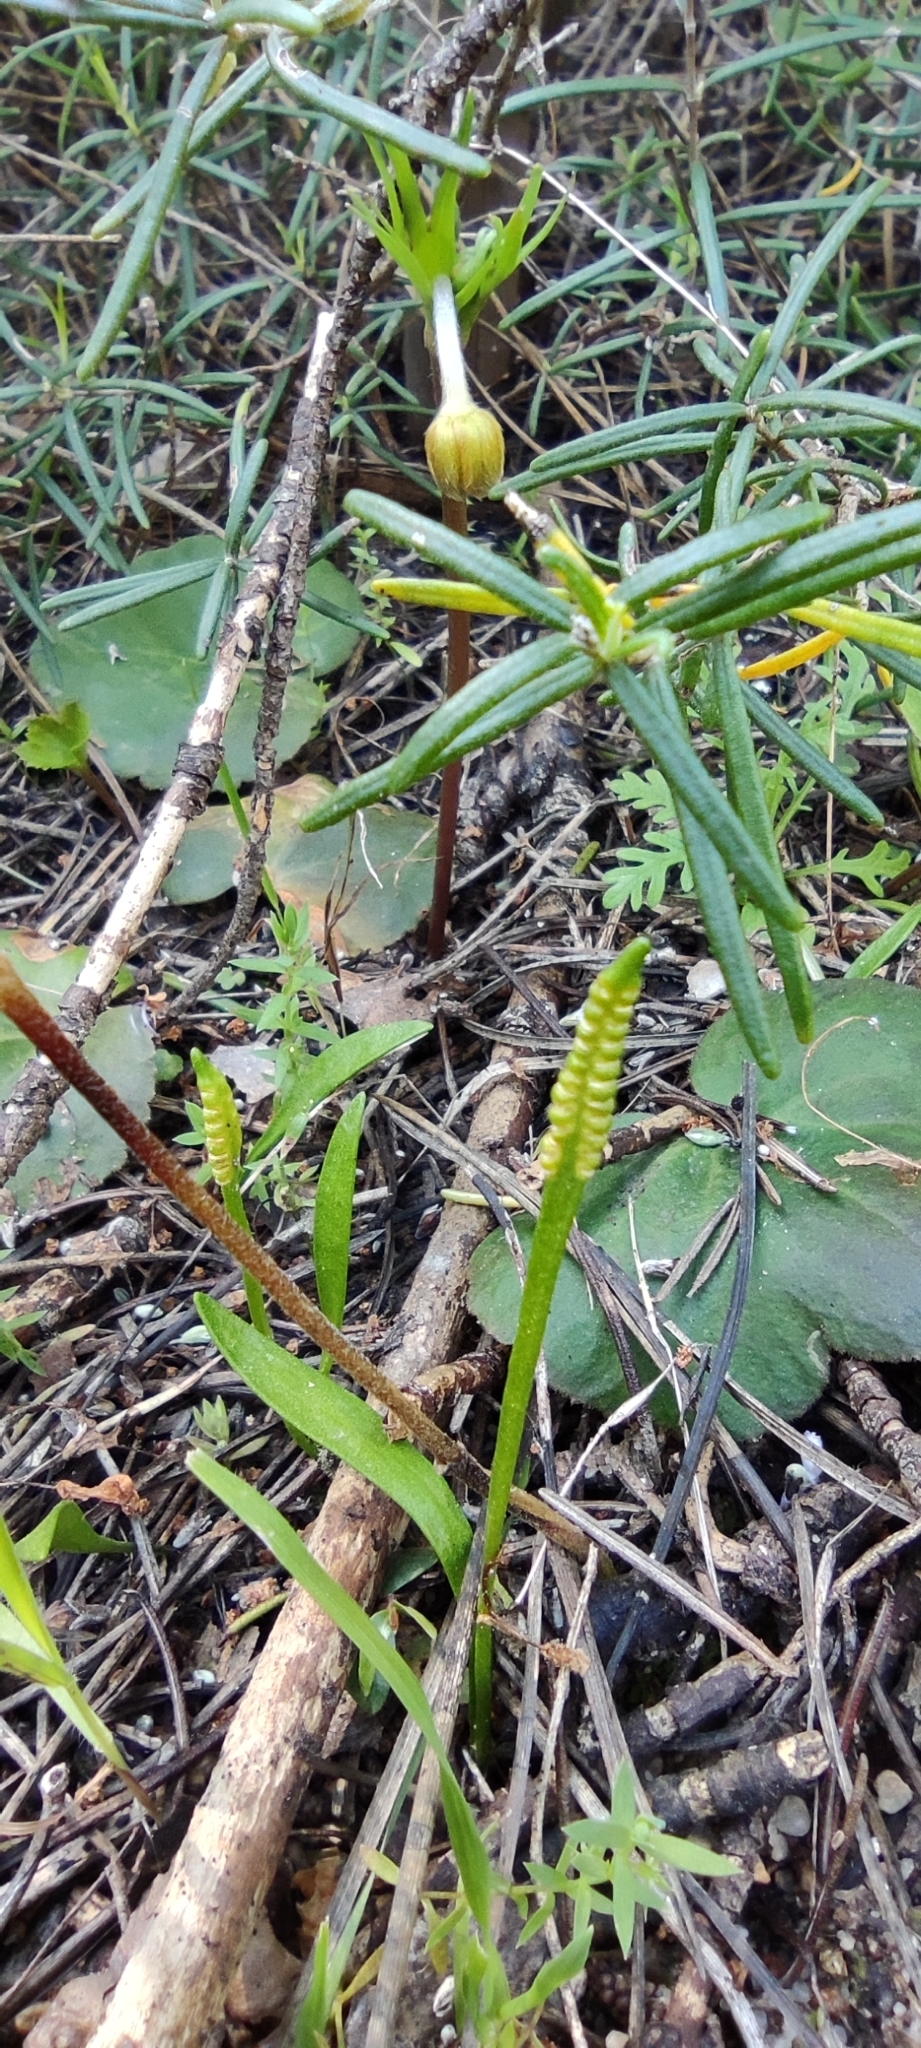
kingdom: Plantae
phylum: Tracheophyta
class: Polypodiopsida
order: Ophioglossales
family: Ophioglossaceae
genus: Ophioglossum
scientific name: Ophioglossum lusitanicum
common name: Least adder's-tongue
